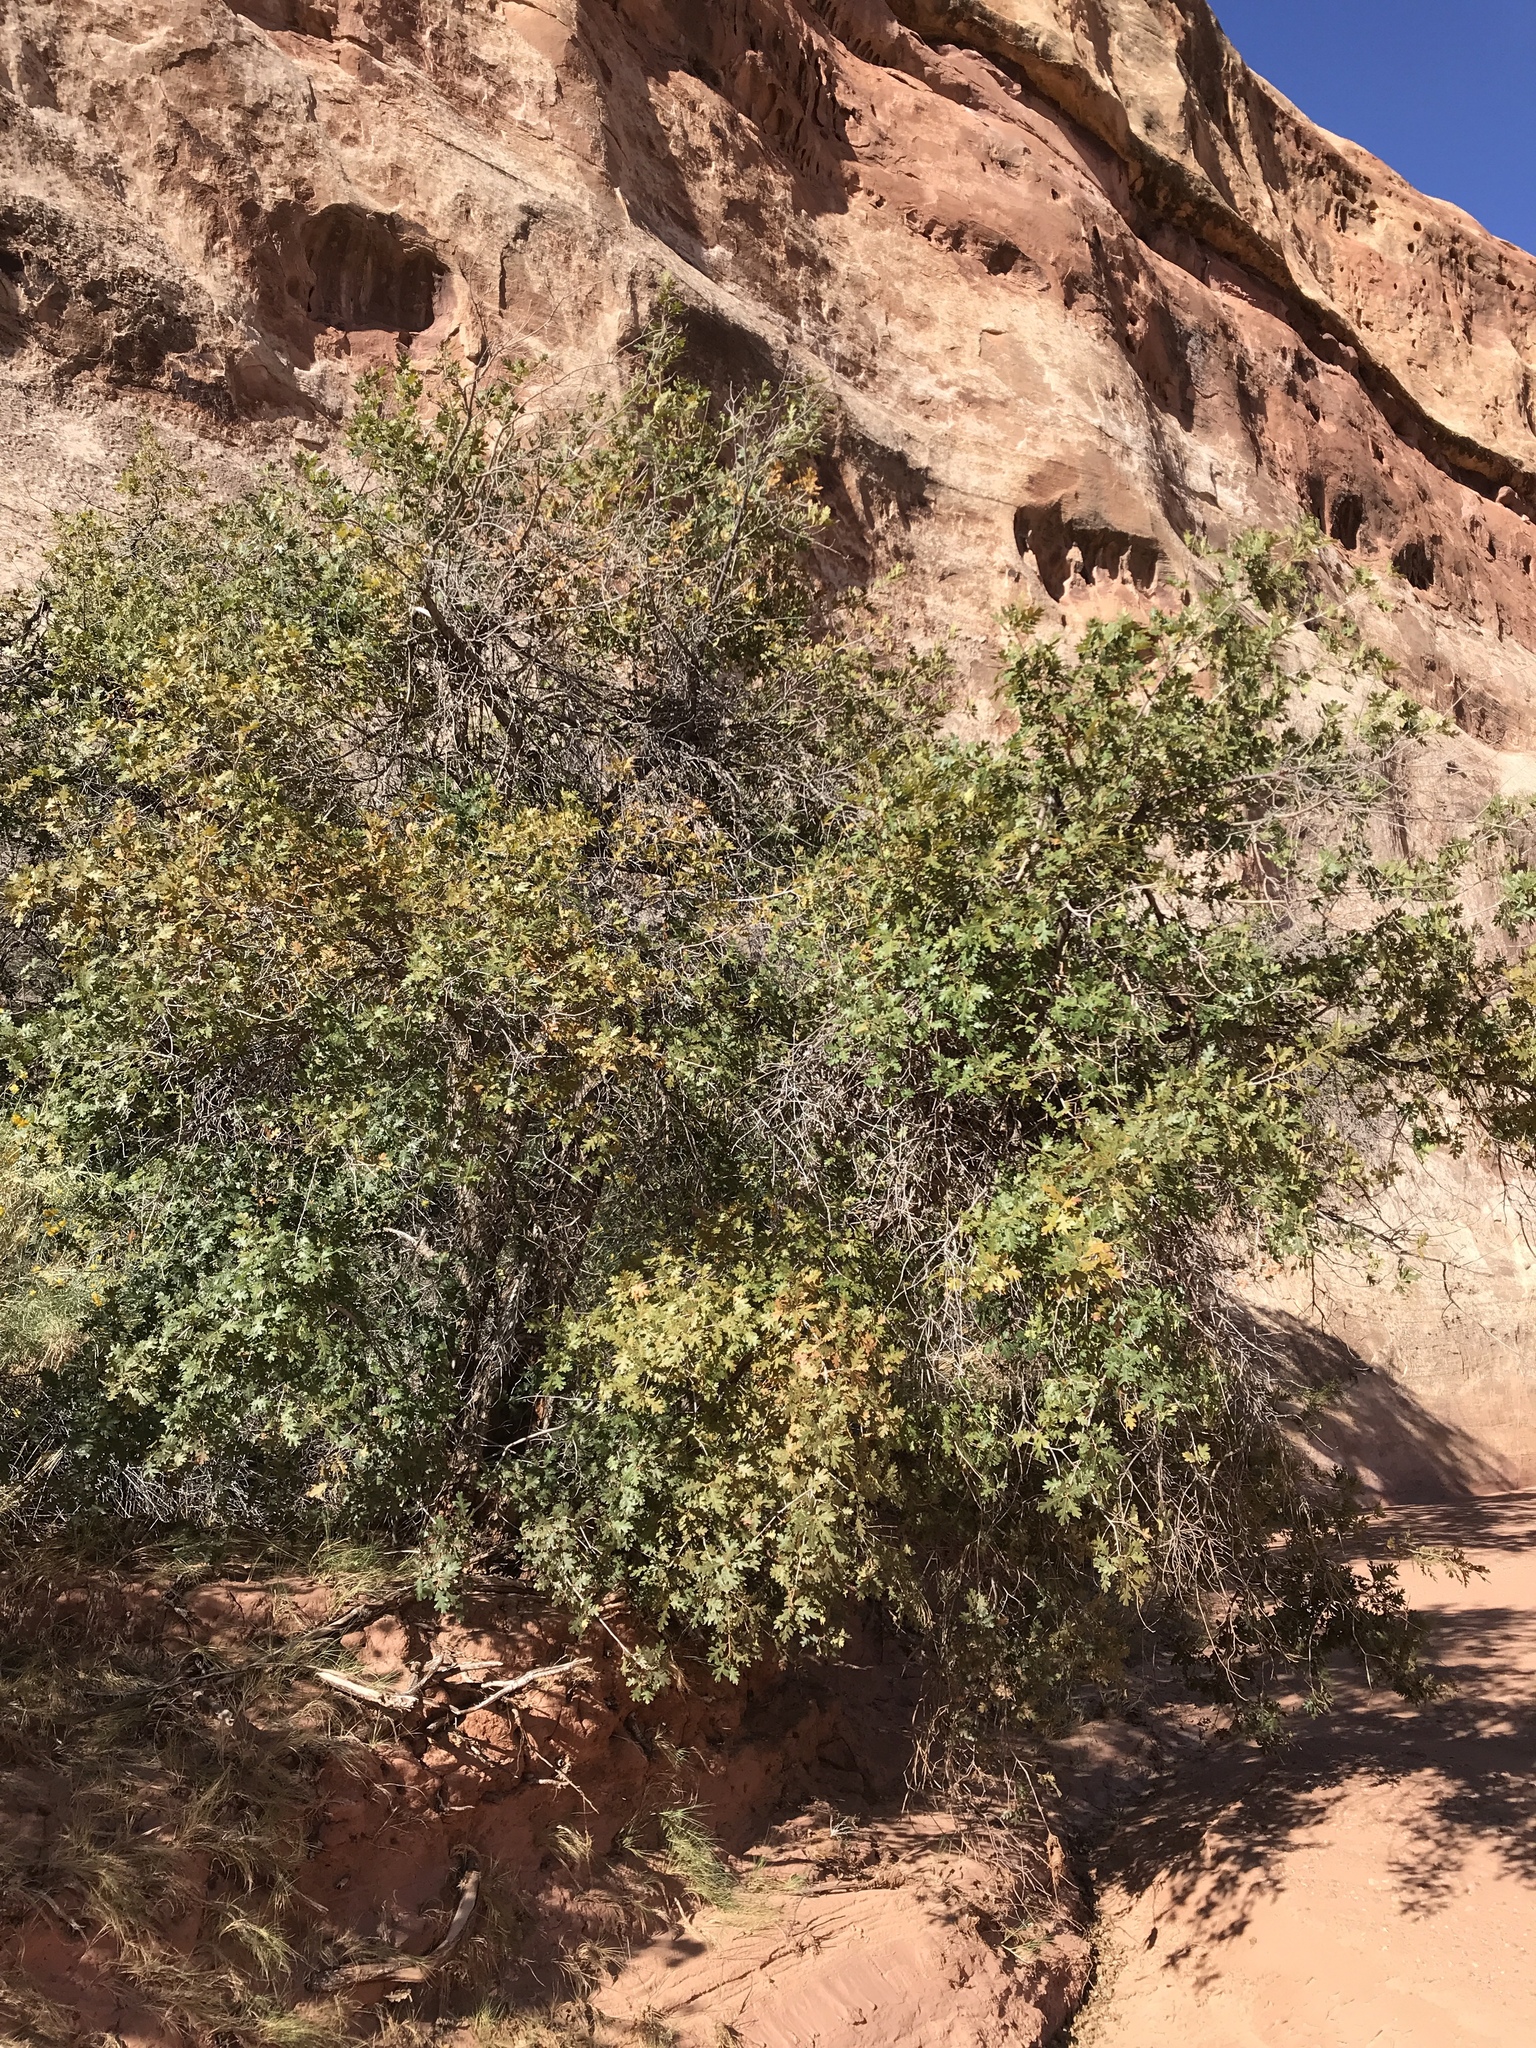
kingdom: Plantae
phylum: Tracheophyta
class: Magnoliopsida
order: Fagales
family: Fagaceae
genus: Quercus
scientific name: Quercus gambelii
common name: Gambel oak
